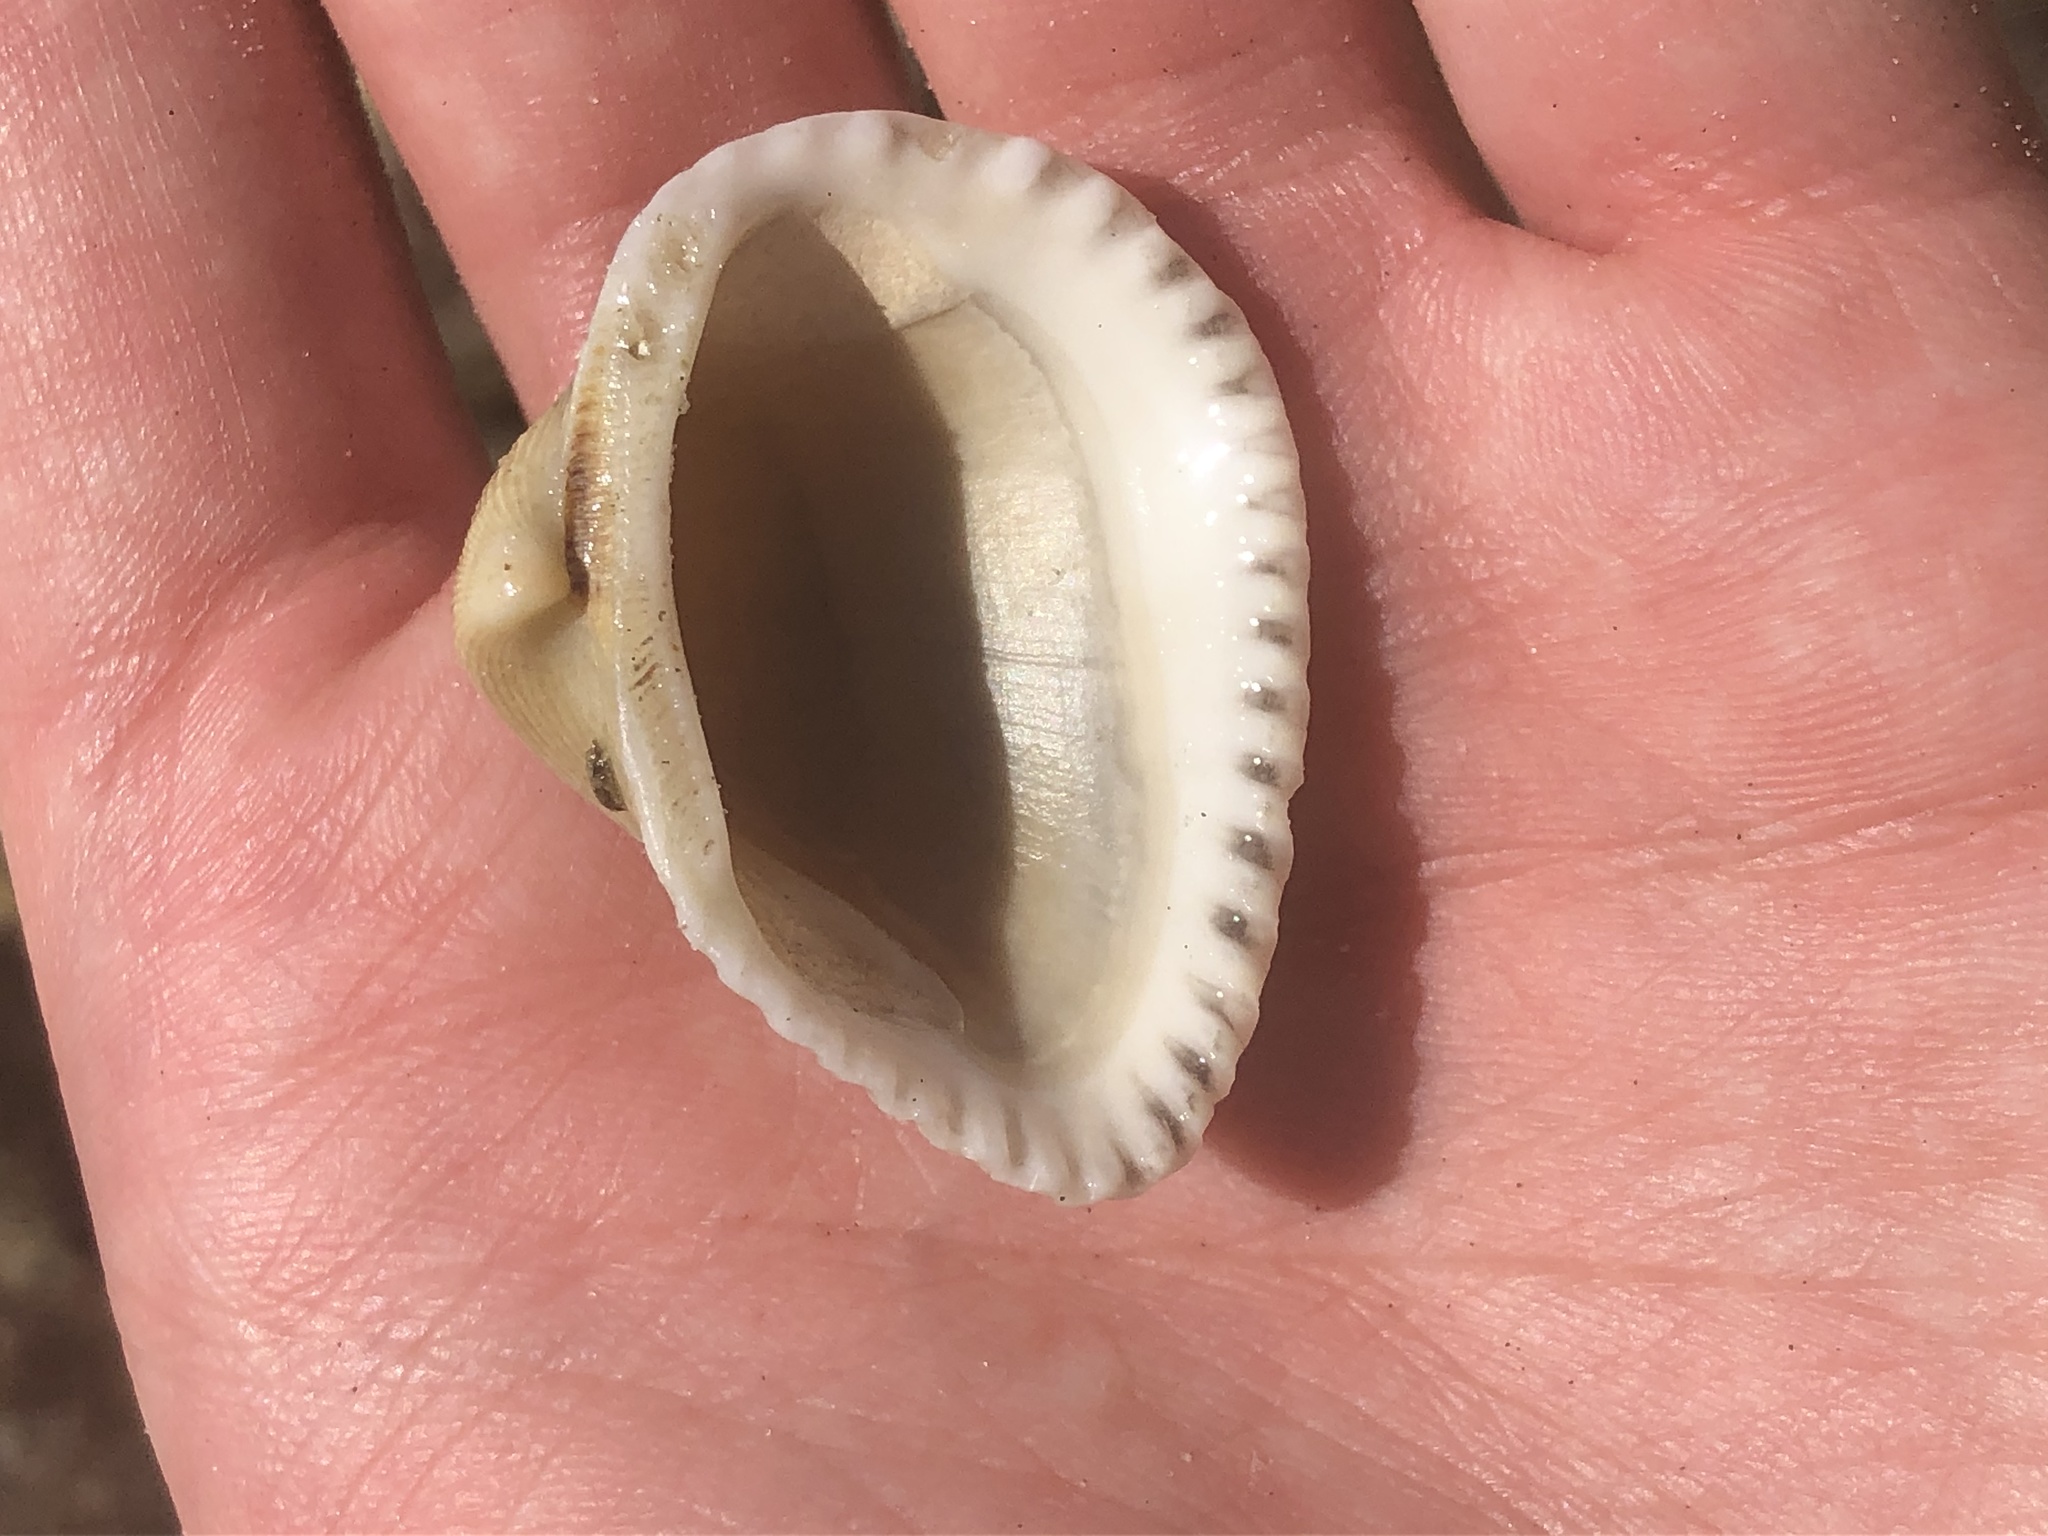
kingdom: Animalia
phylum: Mollusca
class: Bivalvia
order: Arcida
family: Noetiidae
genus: Noetia
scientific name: Noetia ponderosa
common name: Ponderous ark
